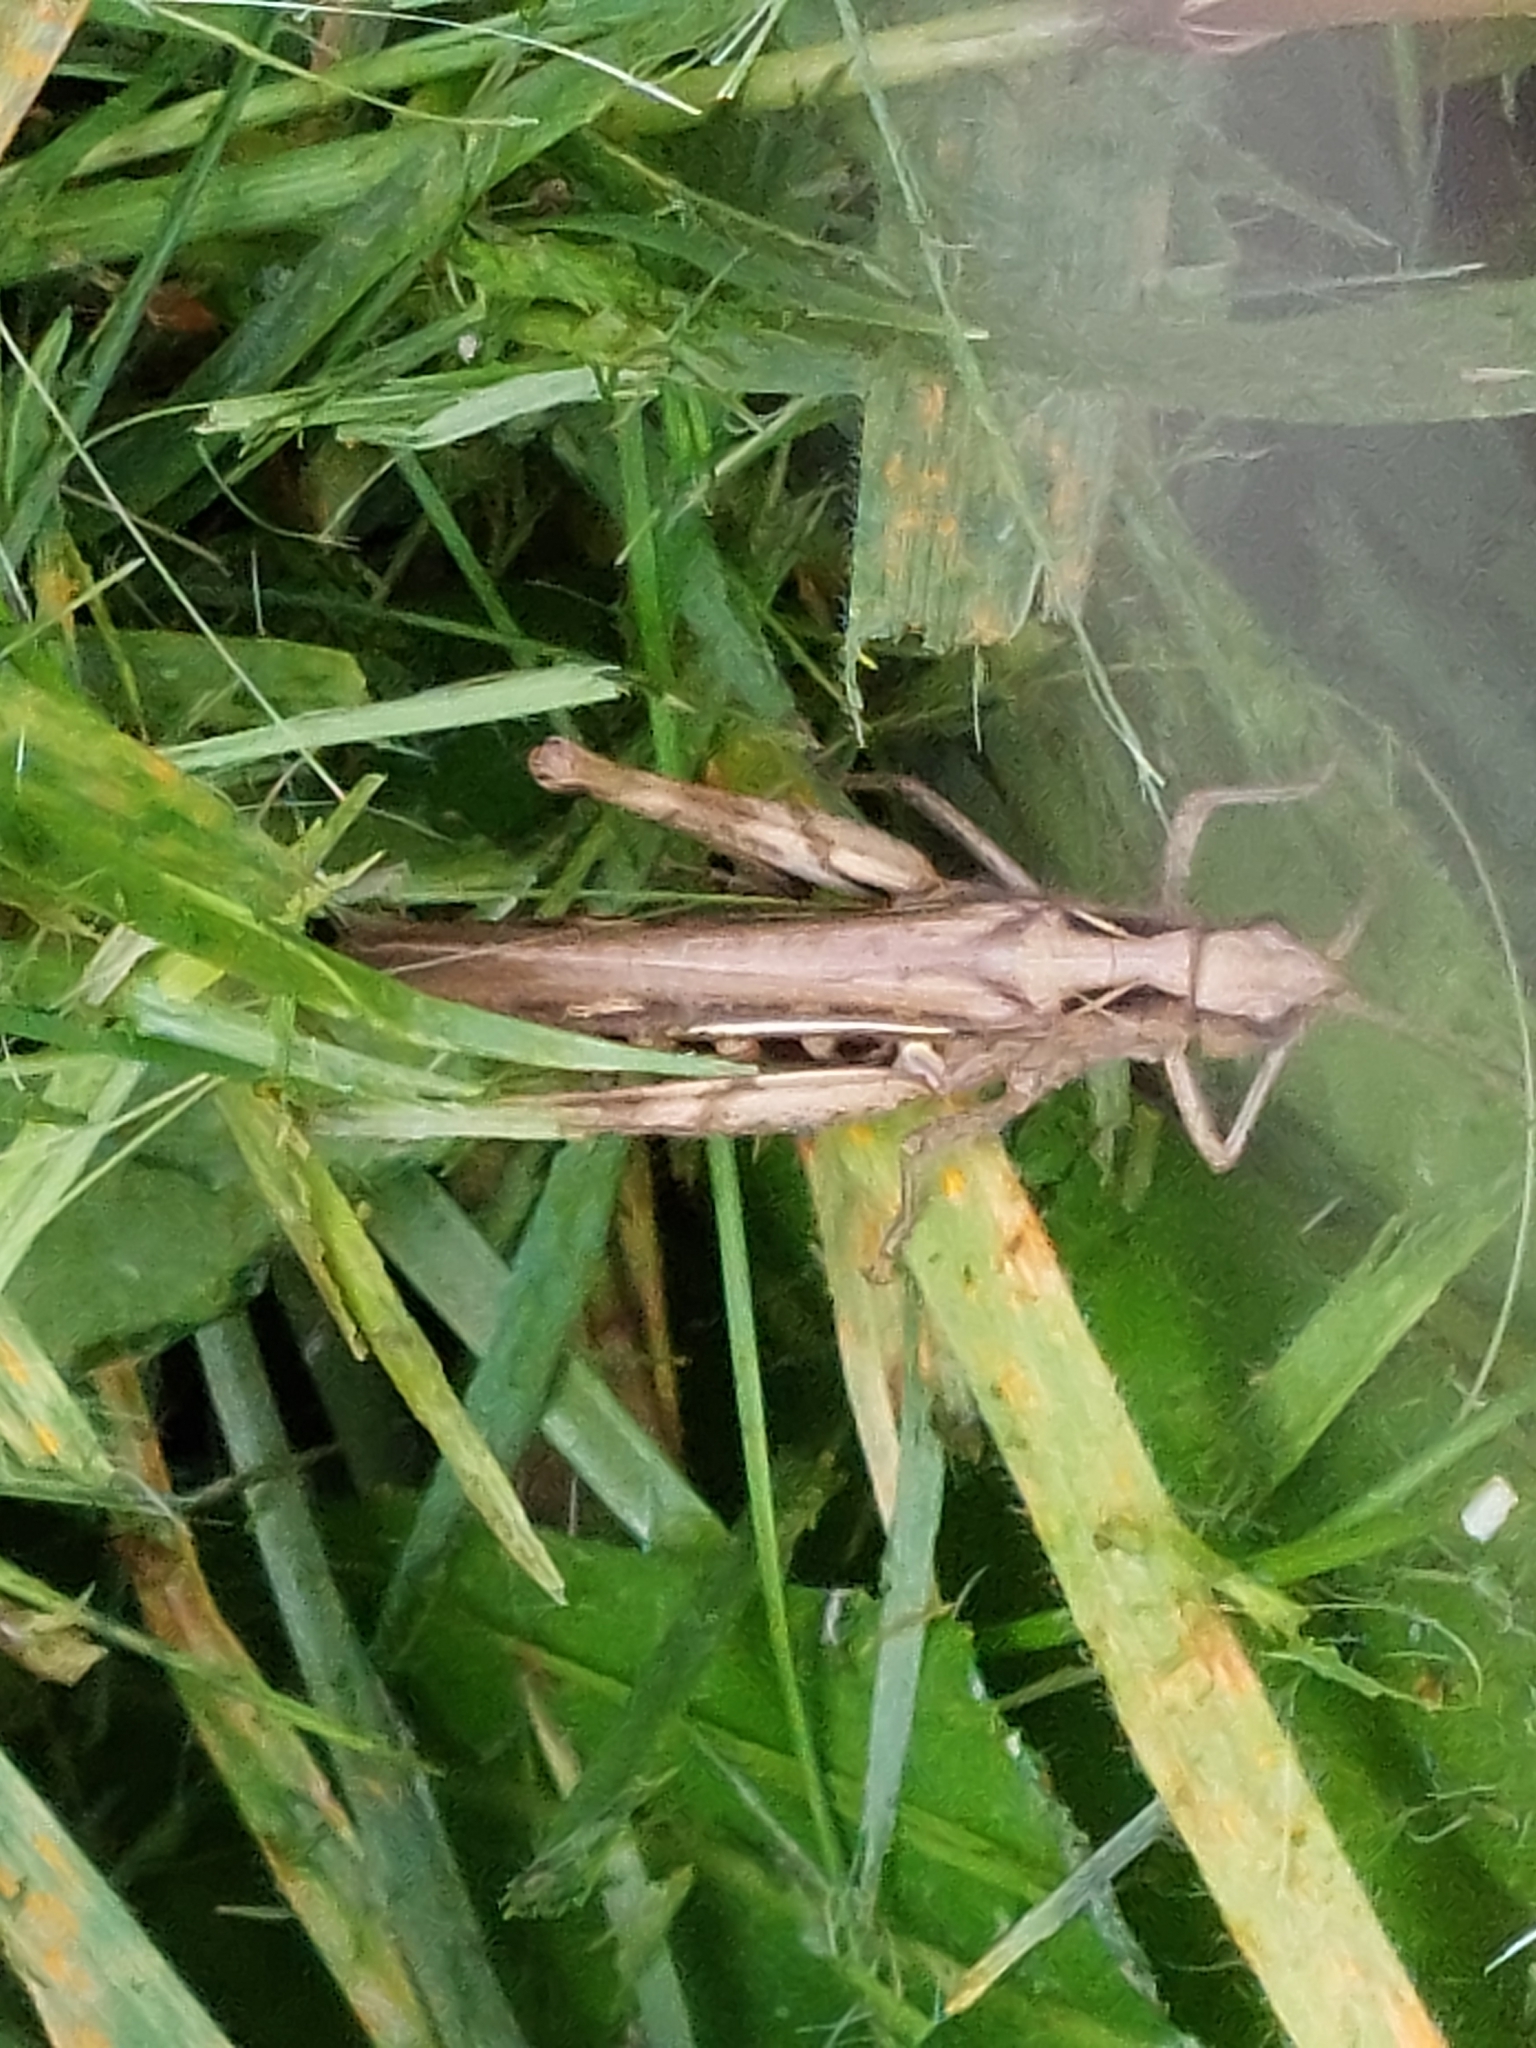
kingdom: Animalia
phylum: Arthropoda
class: Insecta
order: Orthoptera
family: Acrididae
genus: Chorthippus
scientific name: Chorthippus brunneus
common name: Field grasshopper
